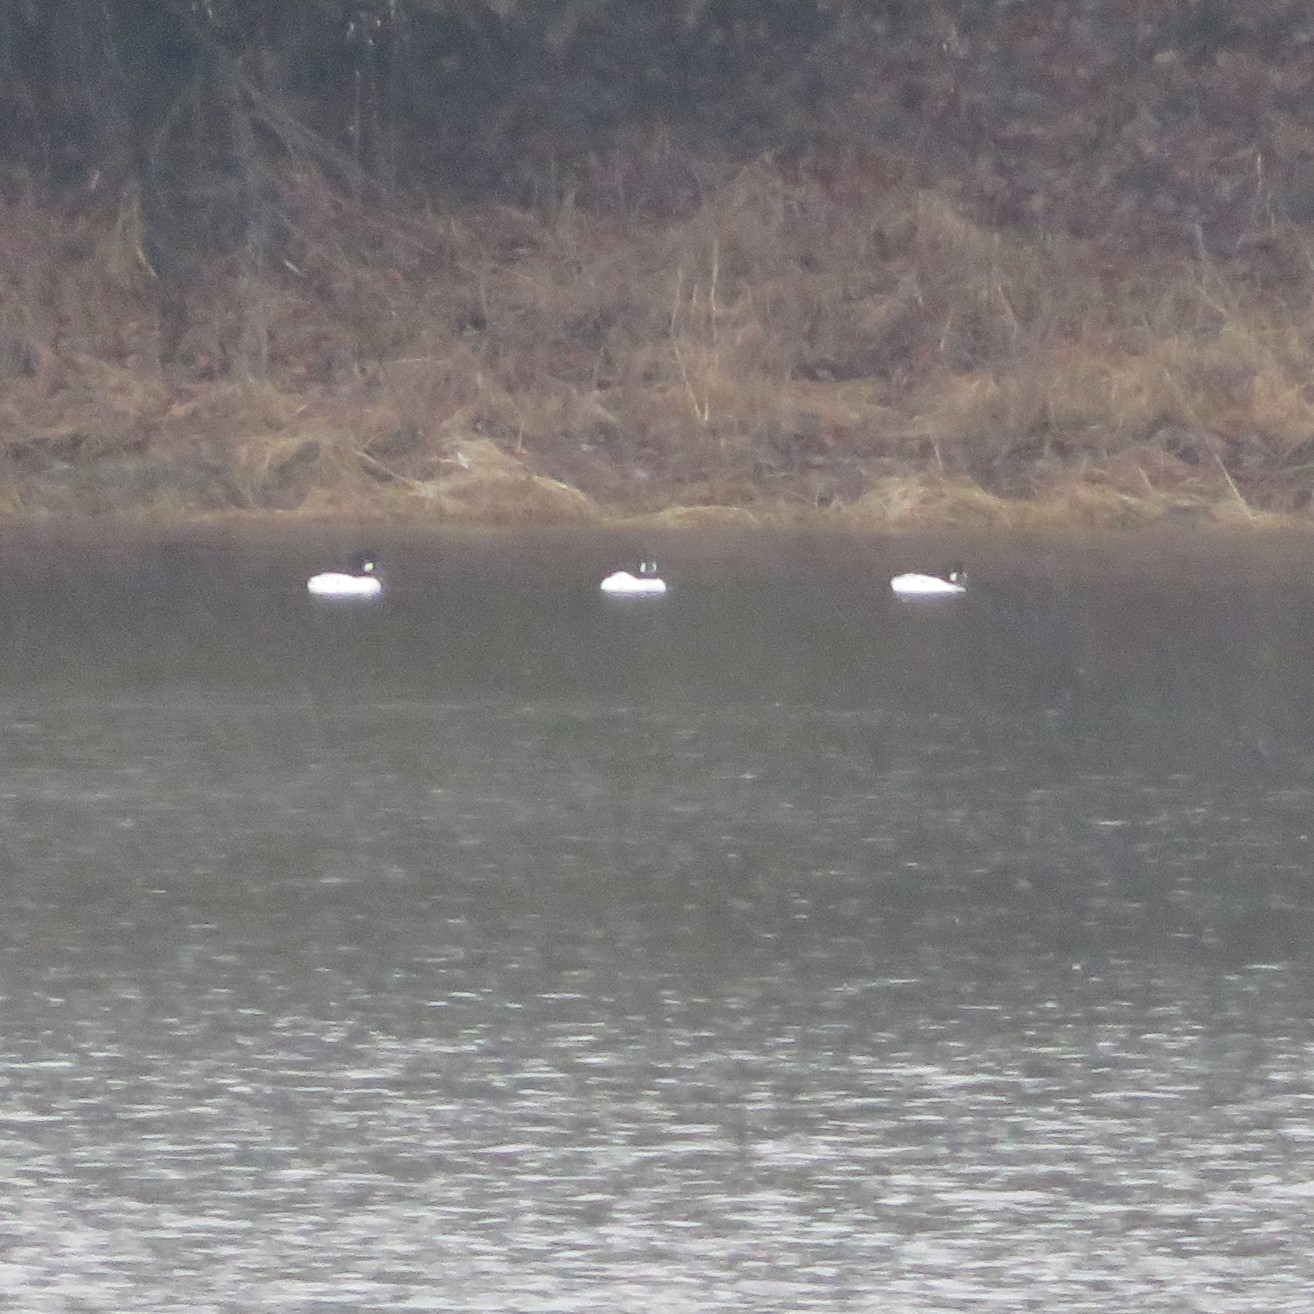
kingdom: Animalia
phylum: Chordata
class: Aves
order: Anseriformes
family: Anatidae
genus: Bucephala
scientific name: Bucephala clangula
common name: Common goldeneye
